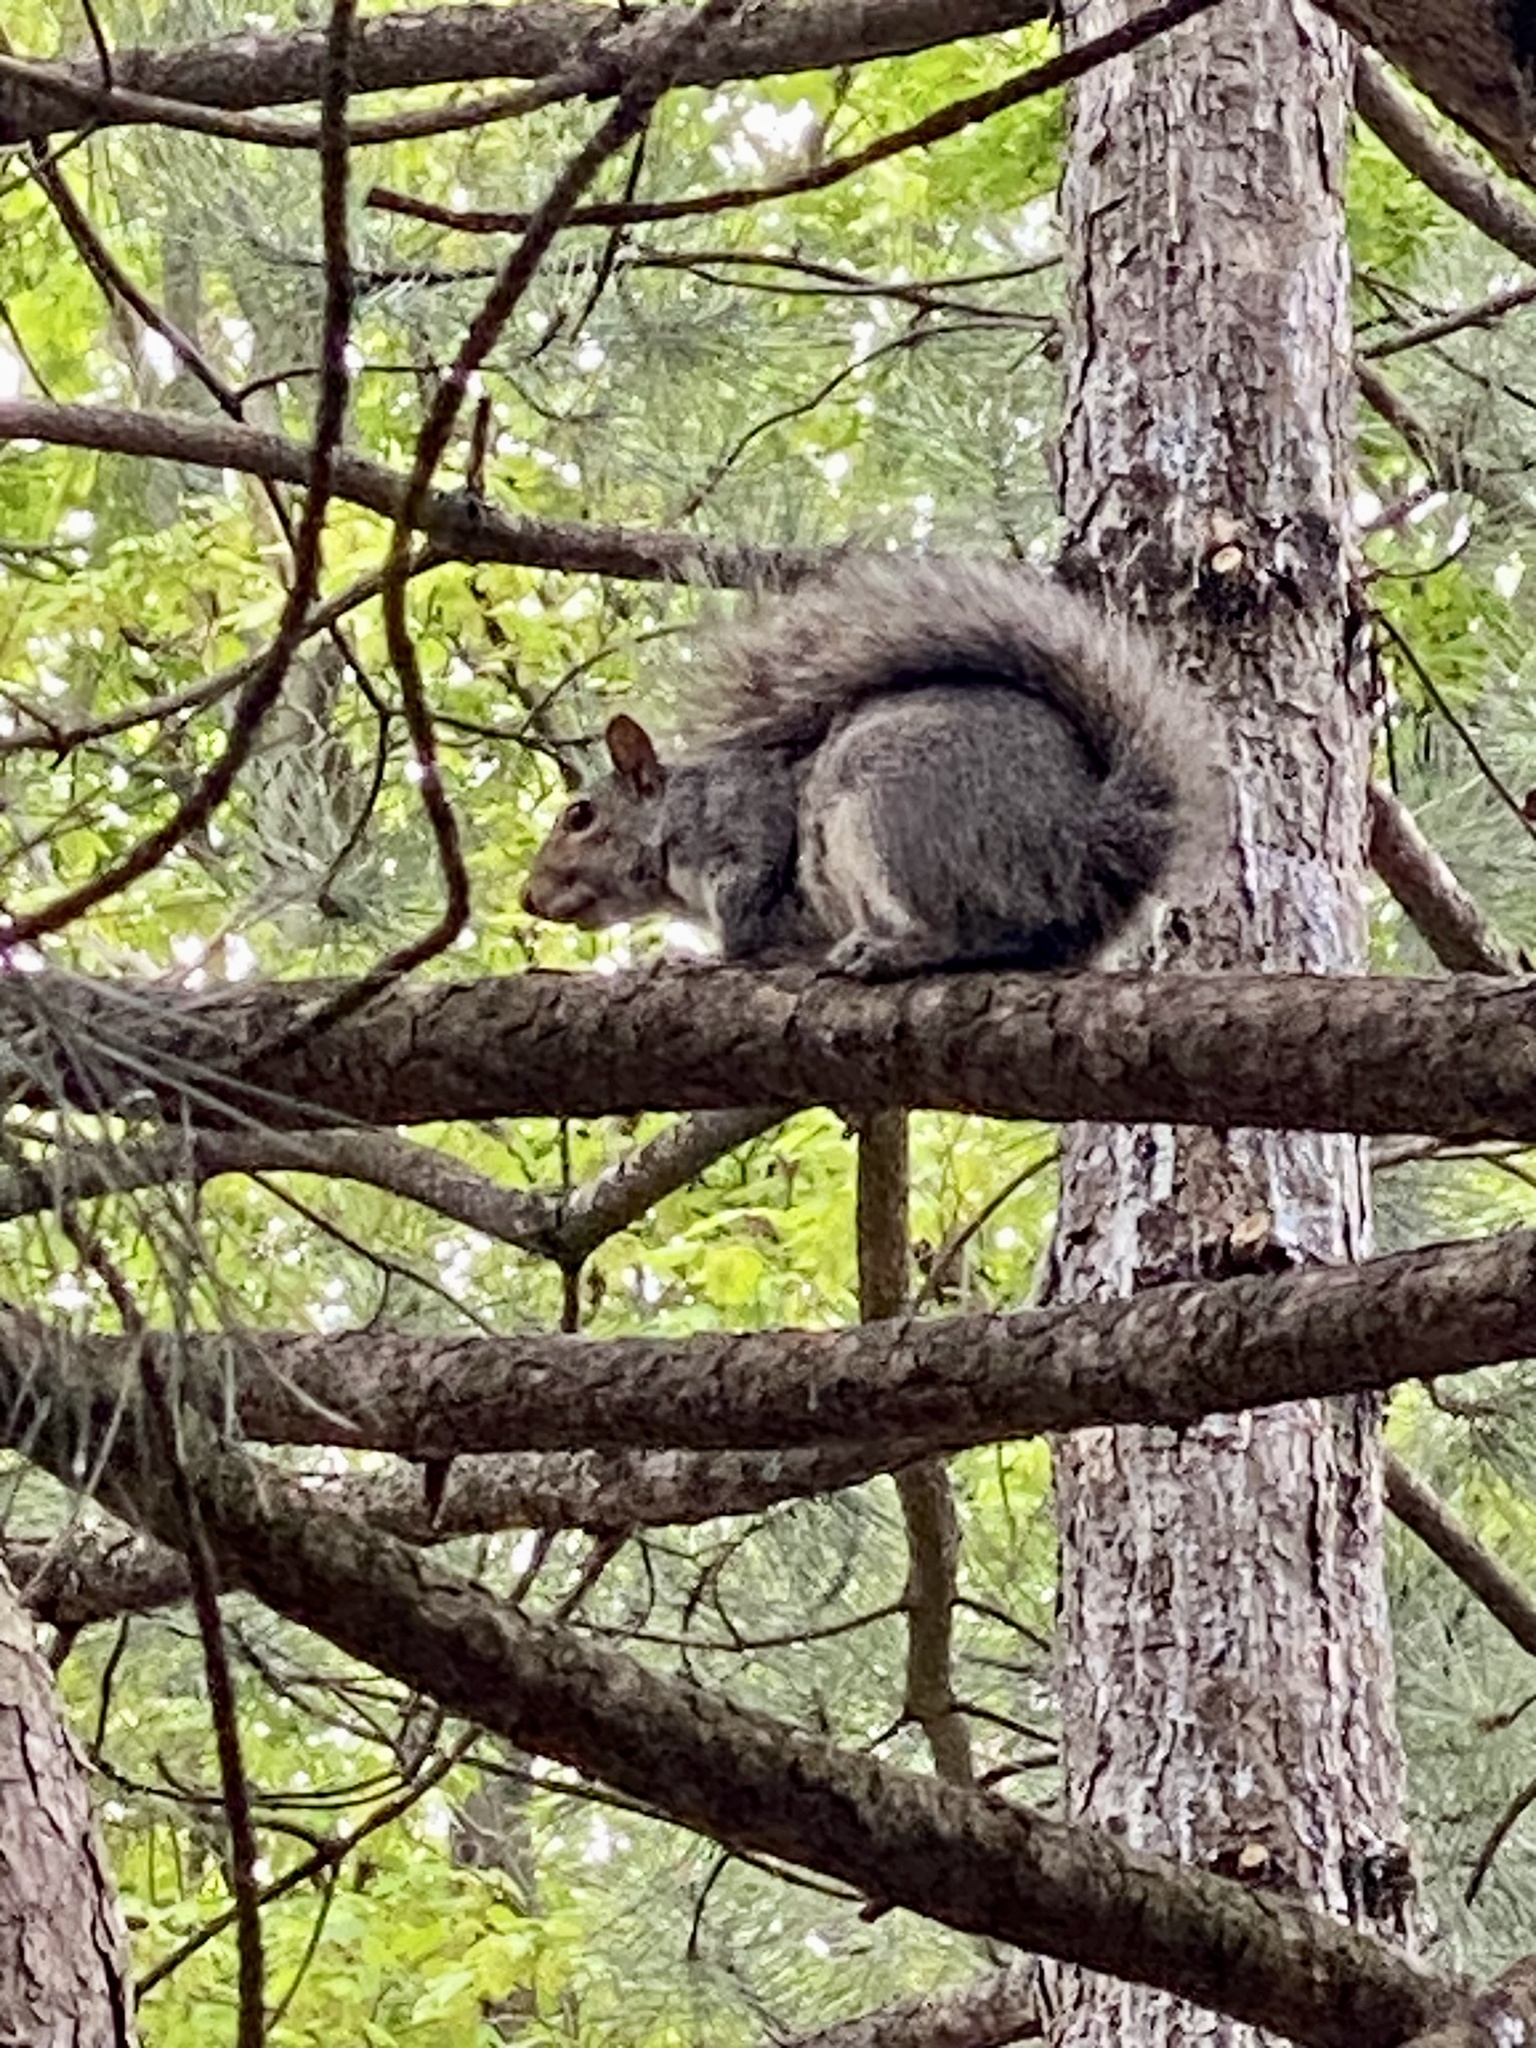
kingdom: Animalia
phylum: Chordata
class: Mammalia
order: Rodentia
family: Sciuridae
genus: Sciurus
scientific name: Sciurus carolinensis
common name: Eastern gray squirrel
